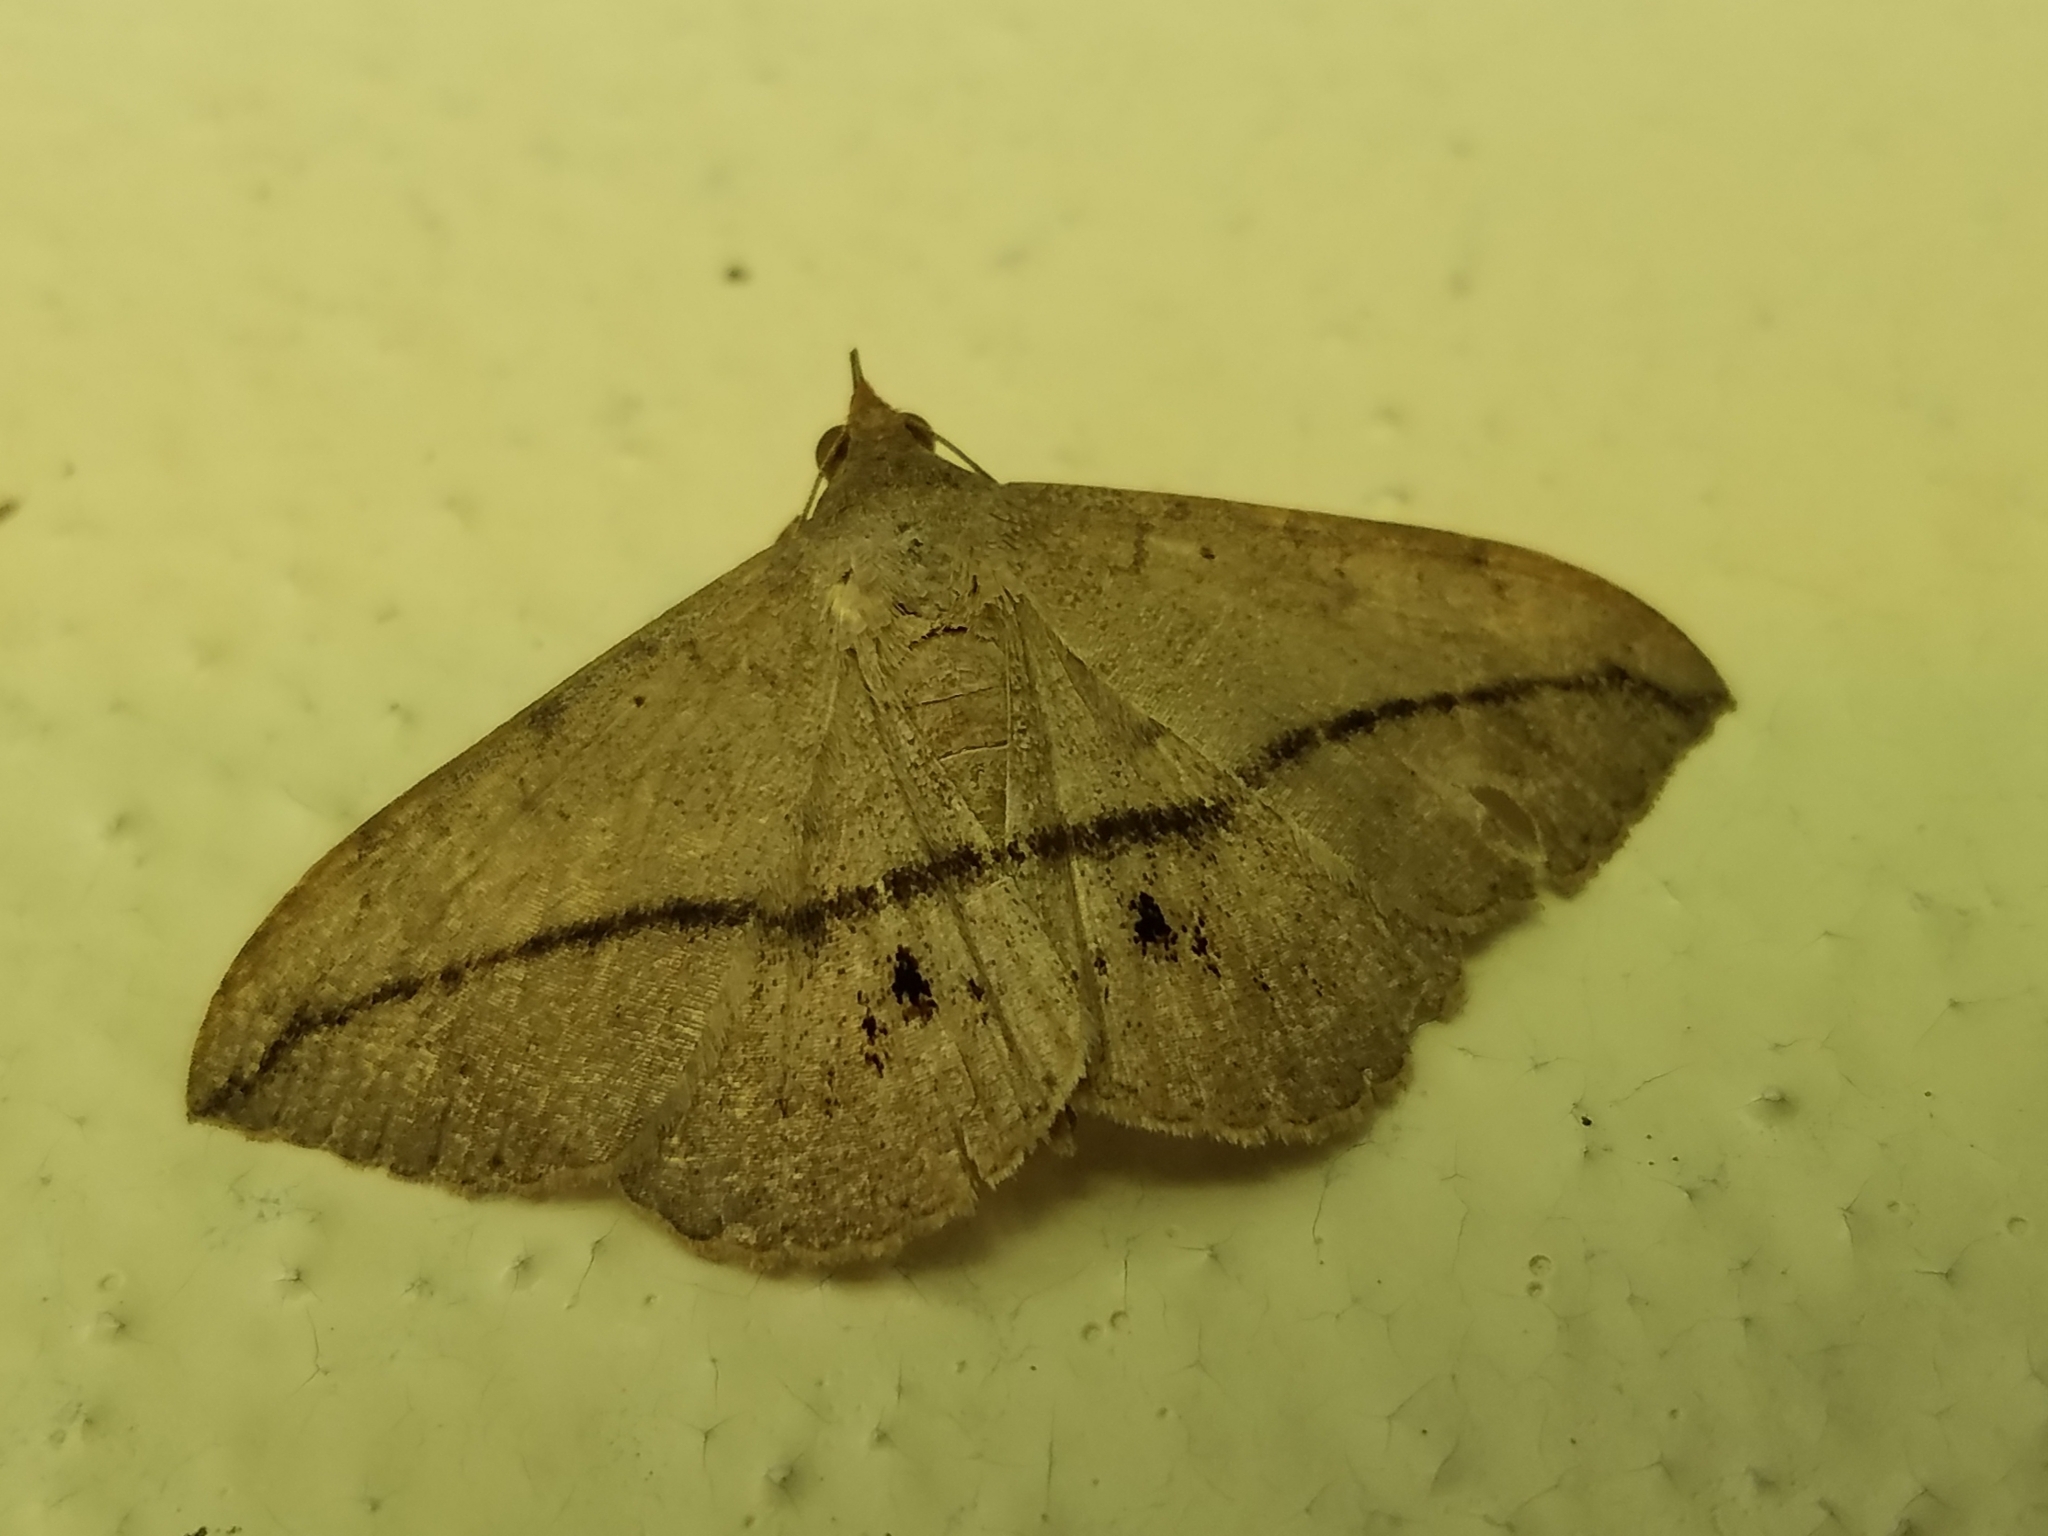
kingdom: Animalia
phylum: Arthropoda
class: Insecta
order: Lepidoptera
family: Erebidae
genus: Anticarsia
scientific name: Anticarsia gemmatalis
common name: Cutworm moth
